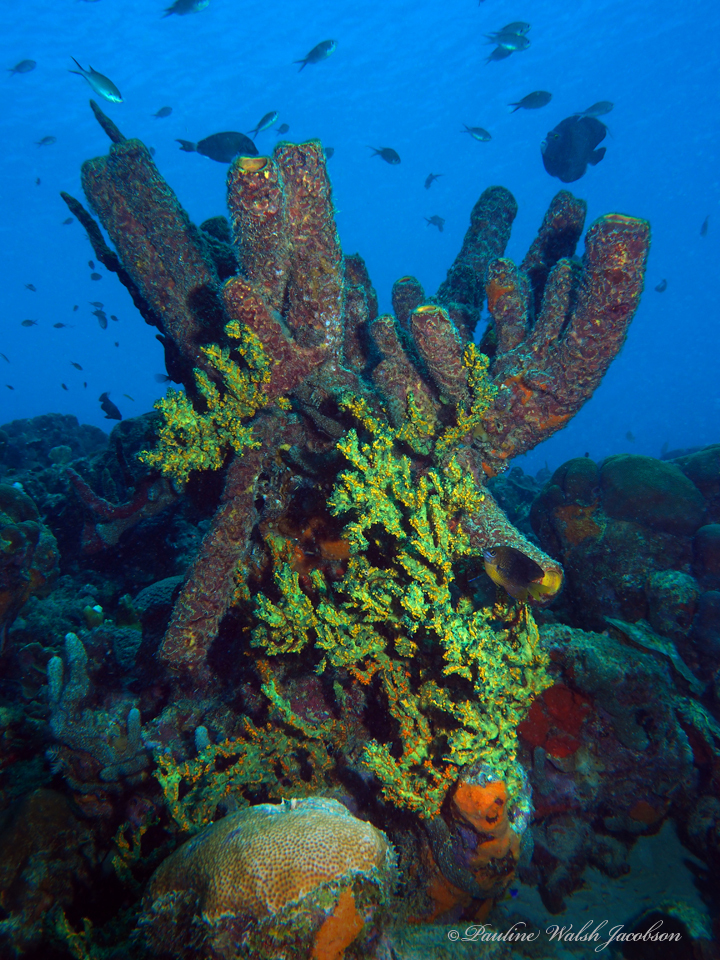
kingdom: Animalia
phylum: Porifera
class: Demospongiae
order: Poecilosclerida
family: Iotrochotidae
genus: Iotrochota
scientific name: Iotrochota birotulata
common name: Purple bleeding sponge
